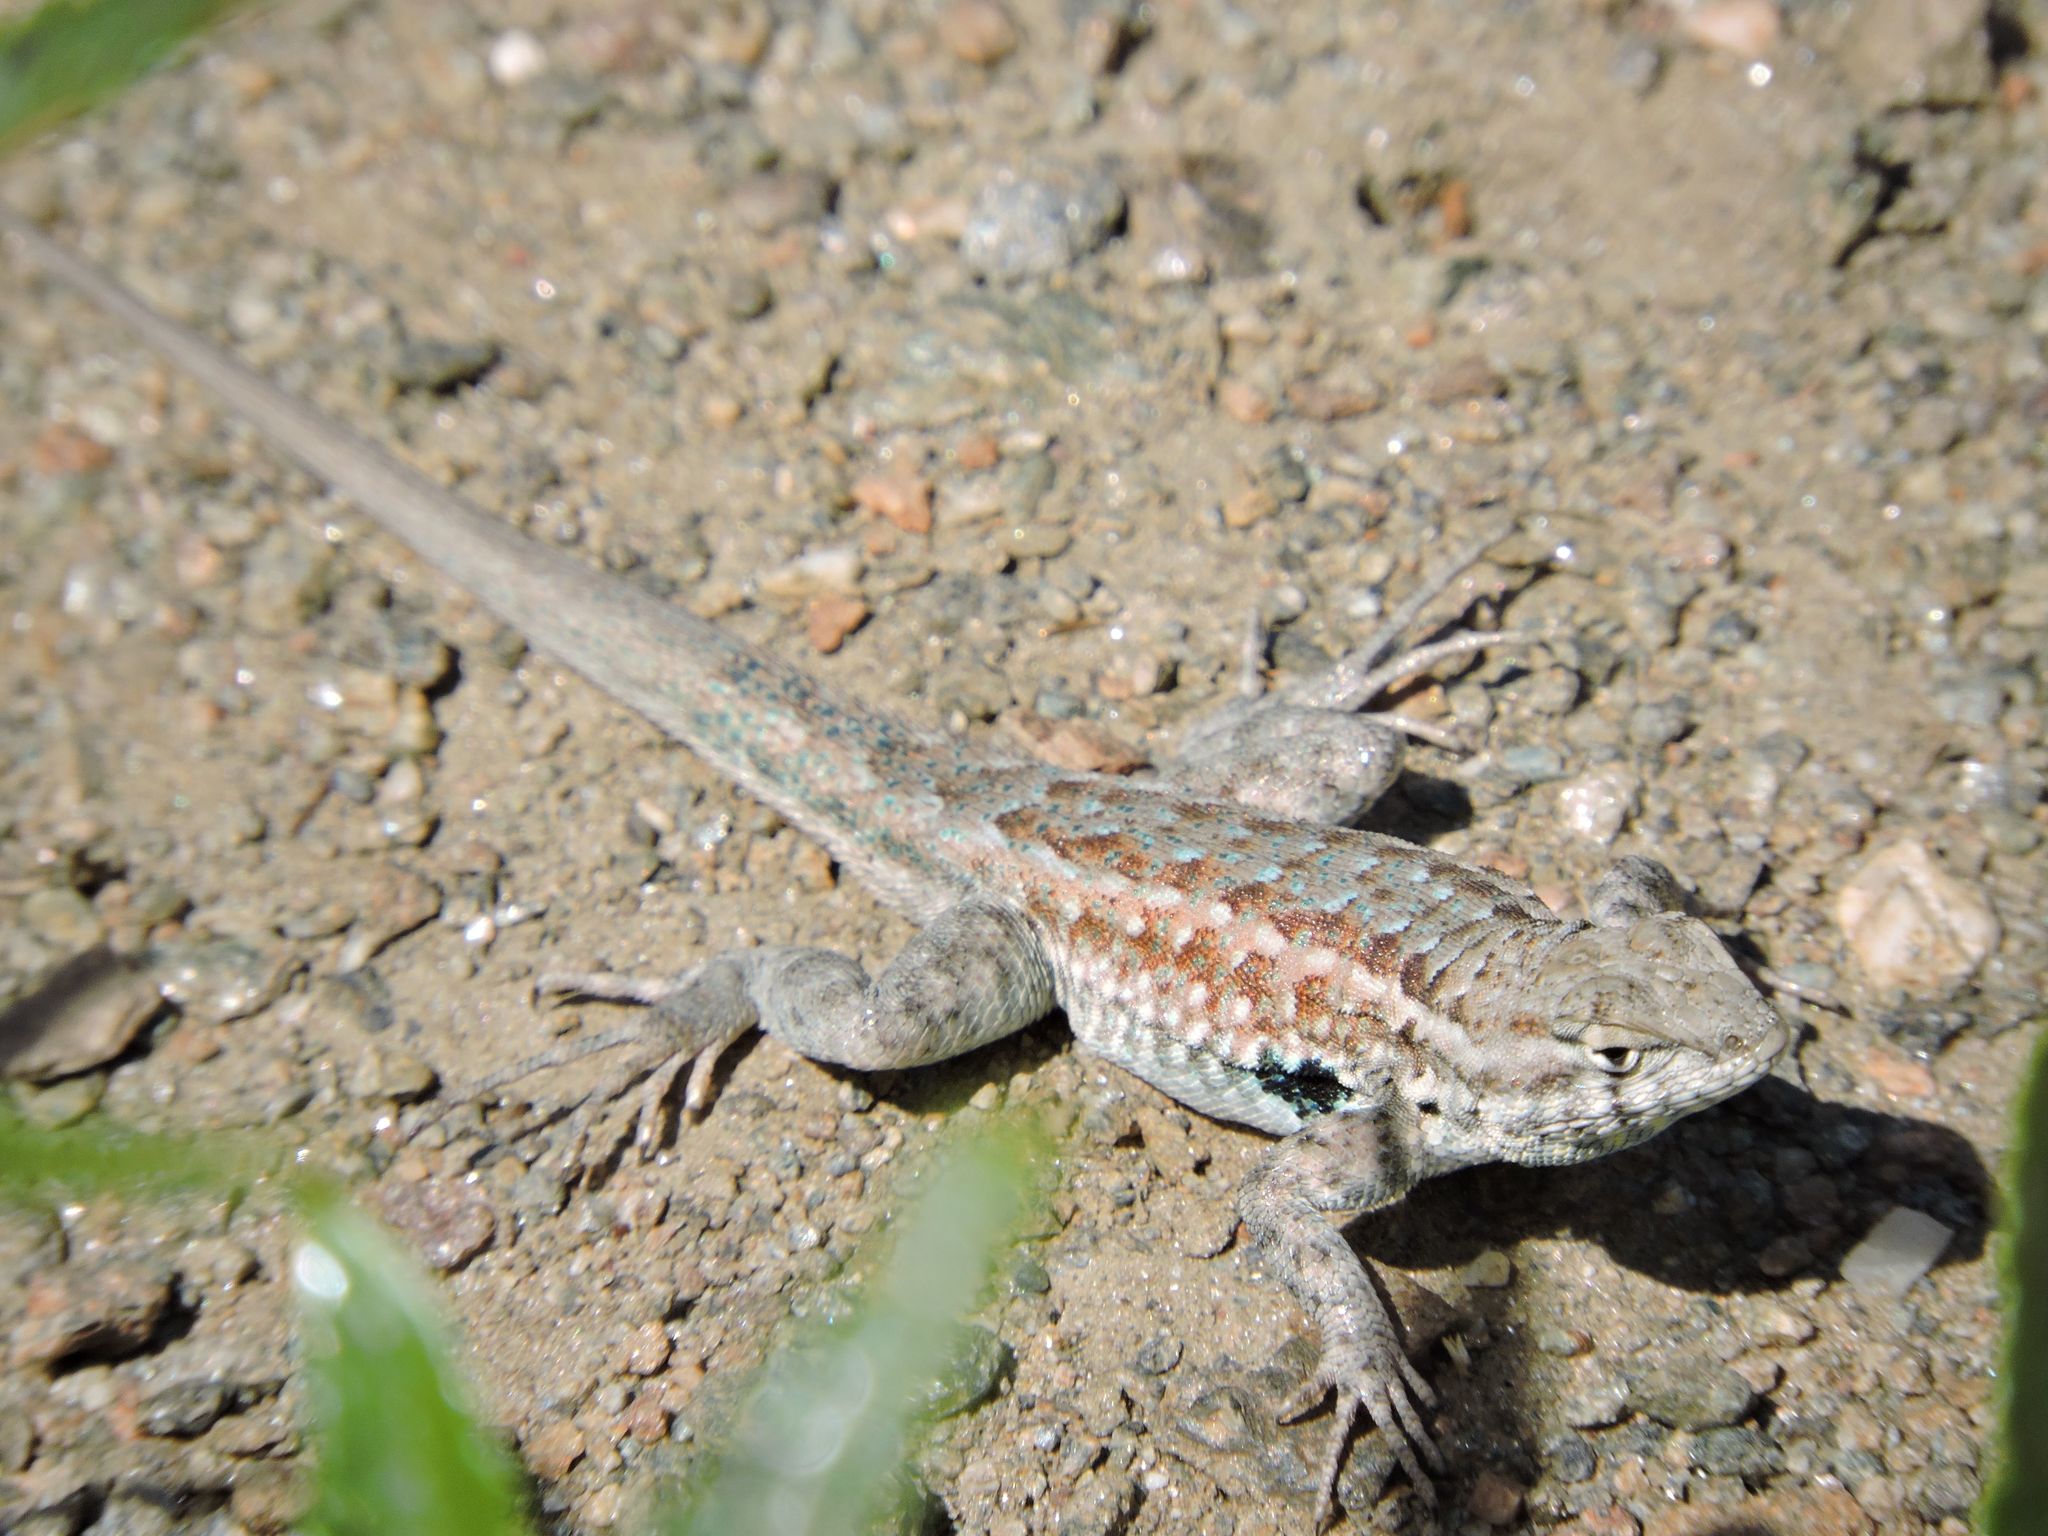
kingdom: Animalia
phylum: Chordata
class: Squamata
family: Phrynosomatidae
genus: Uta
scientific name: Uta stansburiana
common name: Side-blotched lizard
